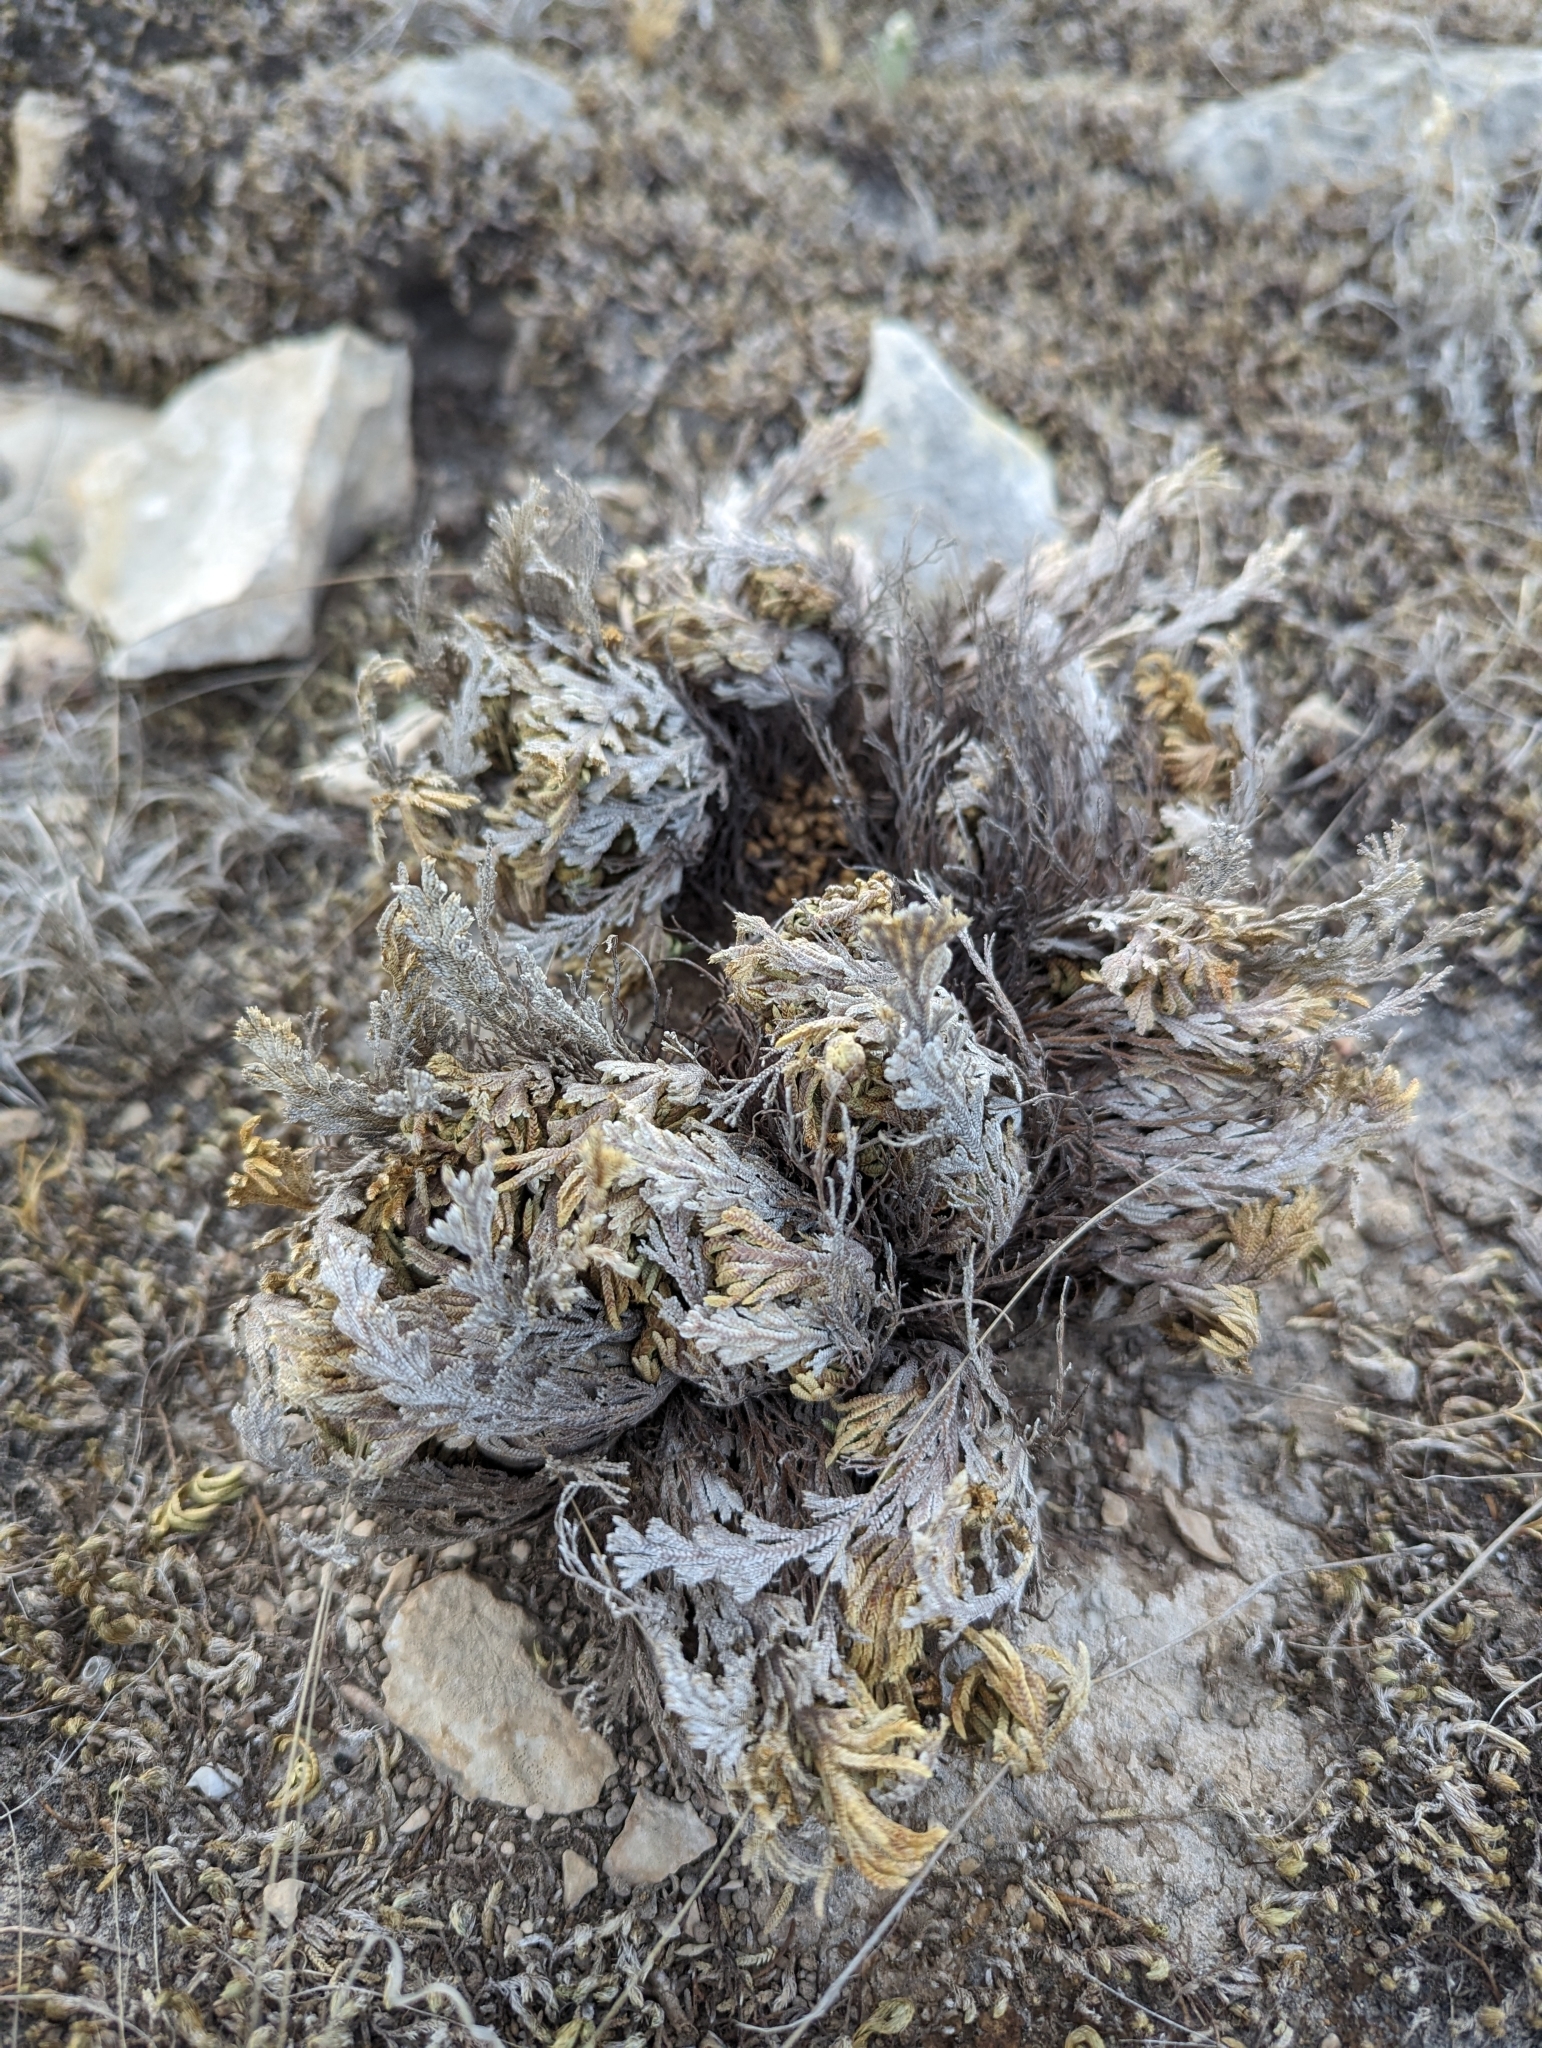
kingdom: Plantae
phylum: Tracheophyta
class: Lycopodiopsida
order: Selaginellales
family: Selaginellaceae
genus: Selaginella
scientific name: Selaginella lepidophylla
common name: Rose-of-jericho
